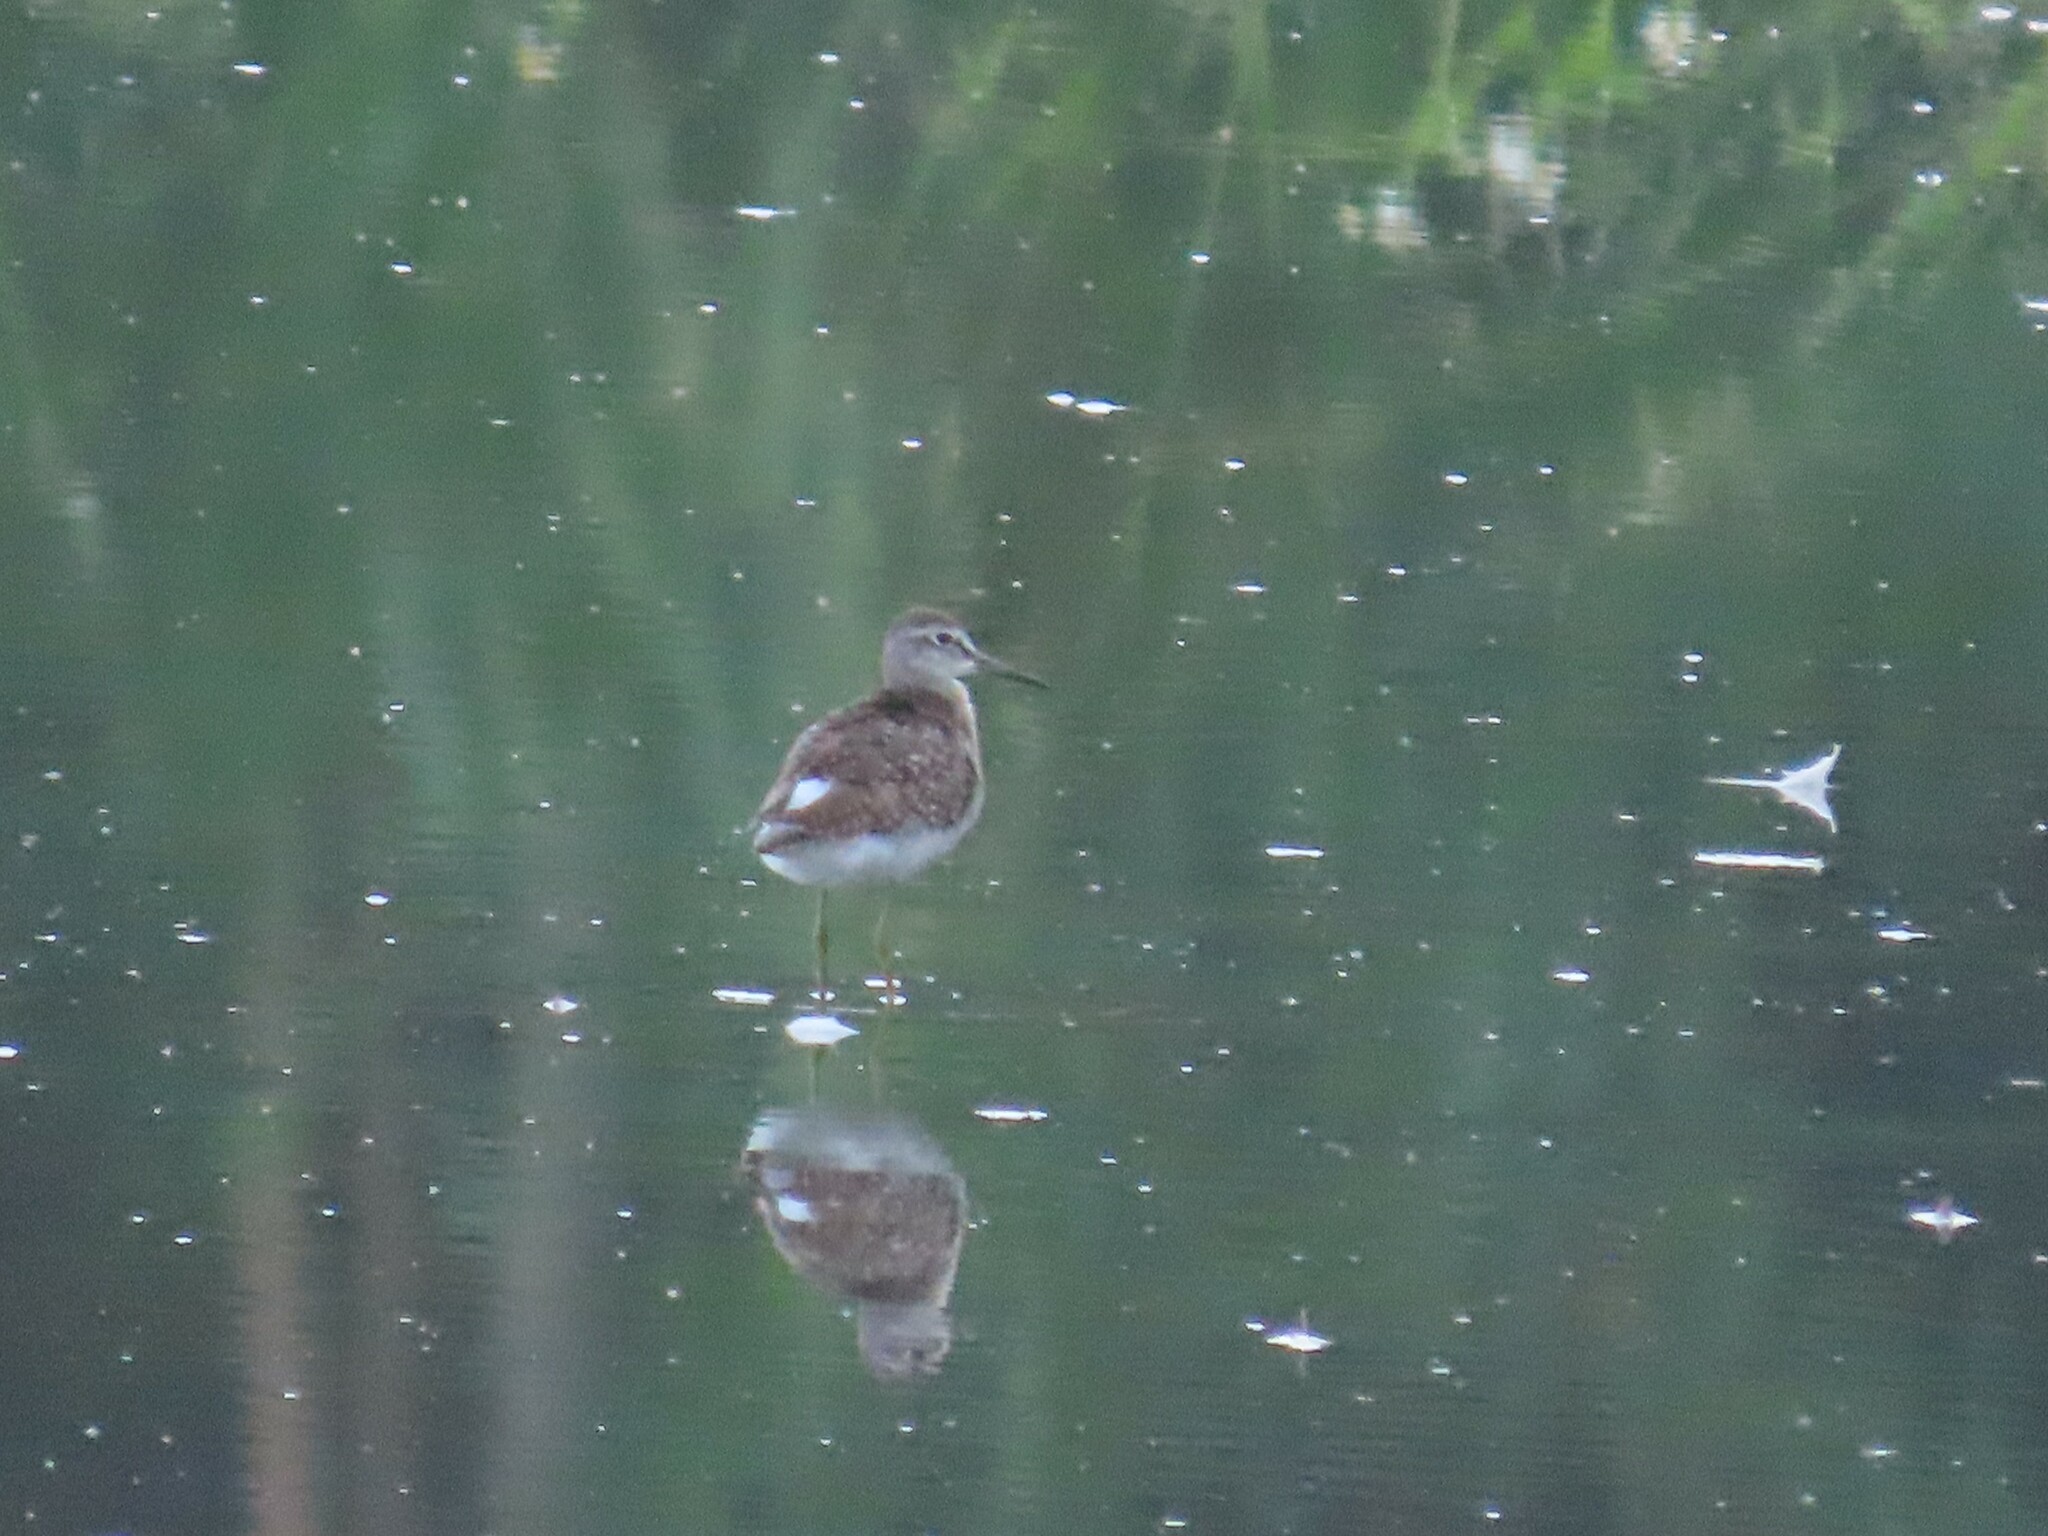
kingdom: Animalia
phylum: Chordata
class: Aves
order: Charadriiformes
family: Scolopacidae
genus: Tringa
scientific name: Tringa glareola
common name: Wood sandpiper
